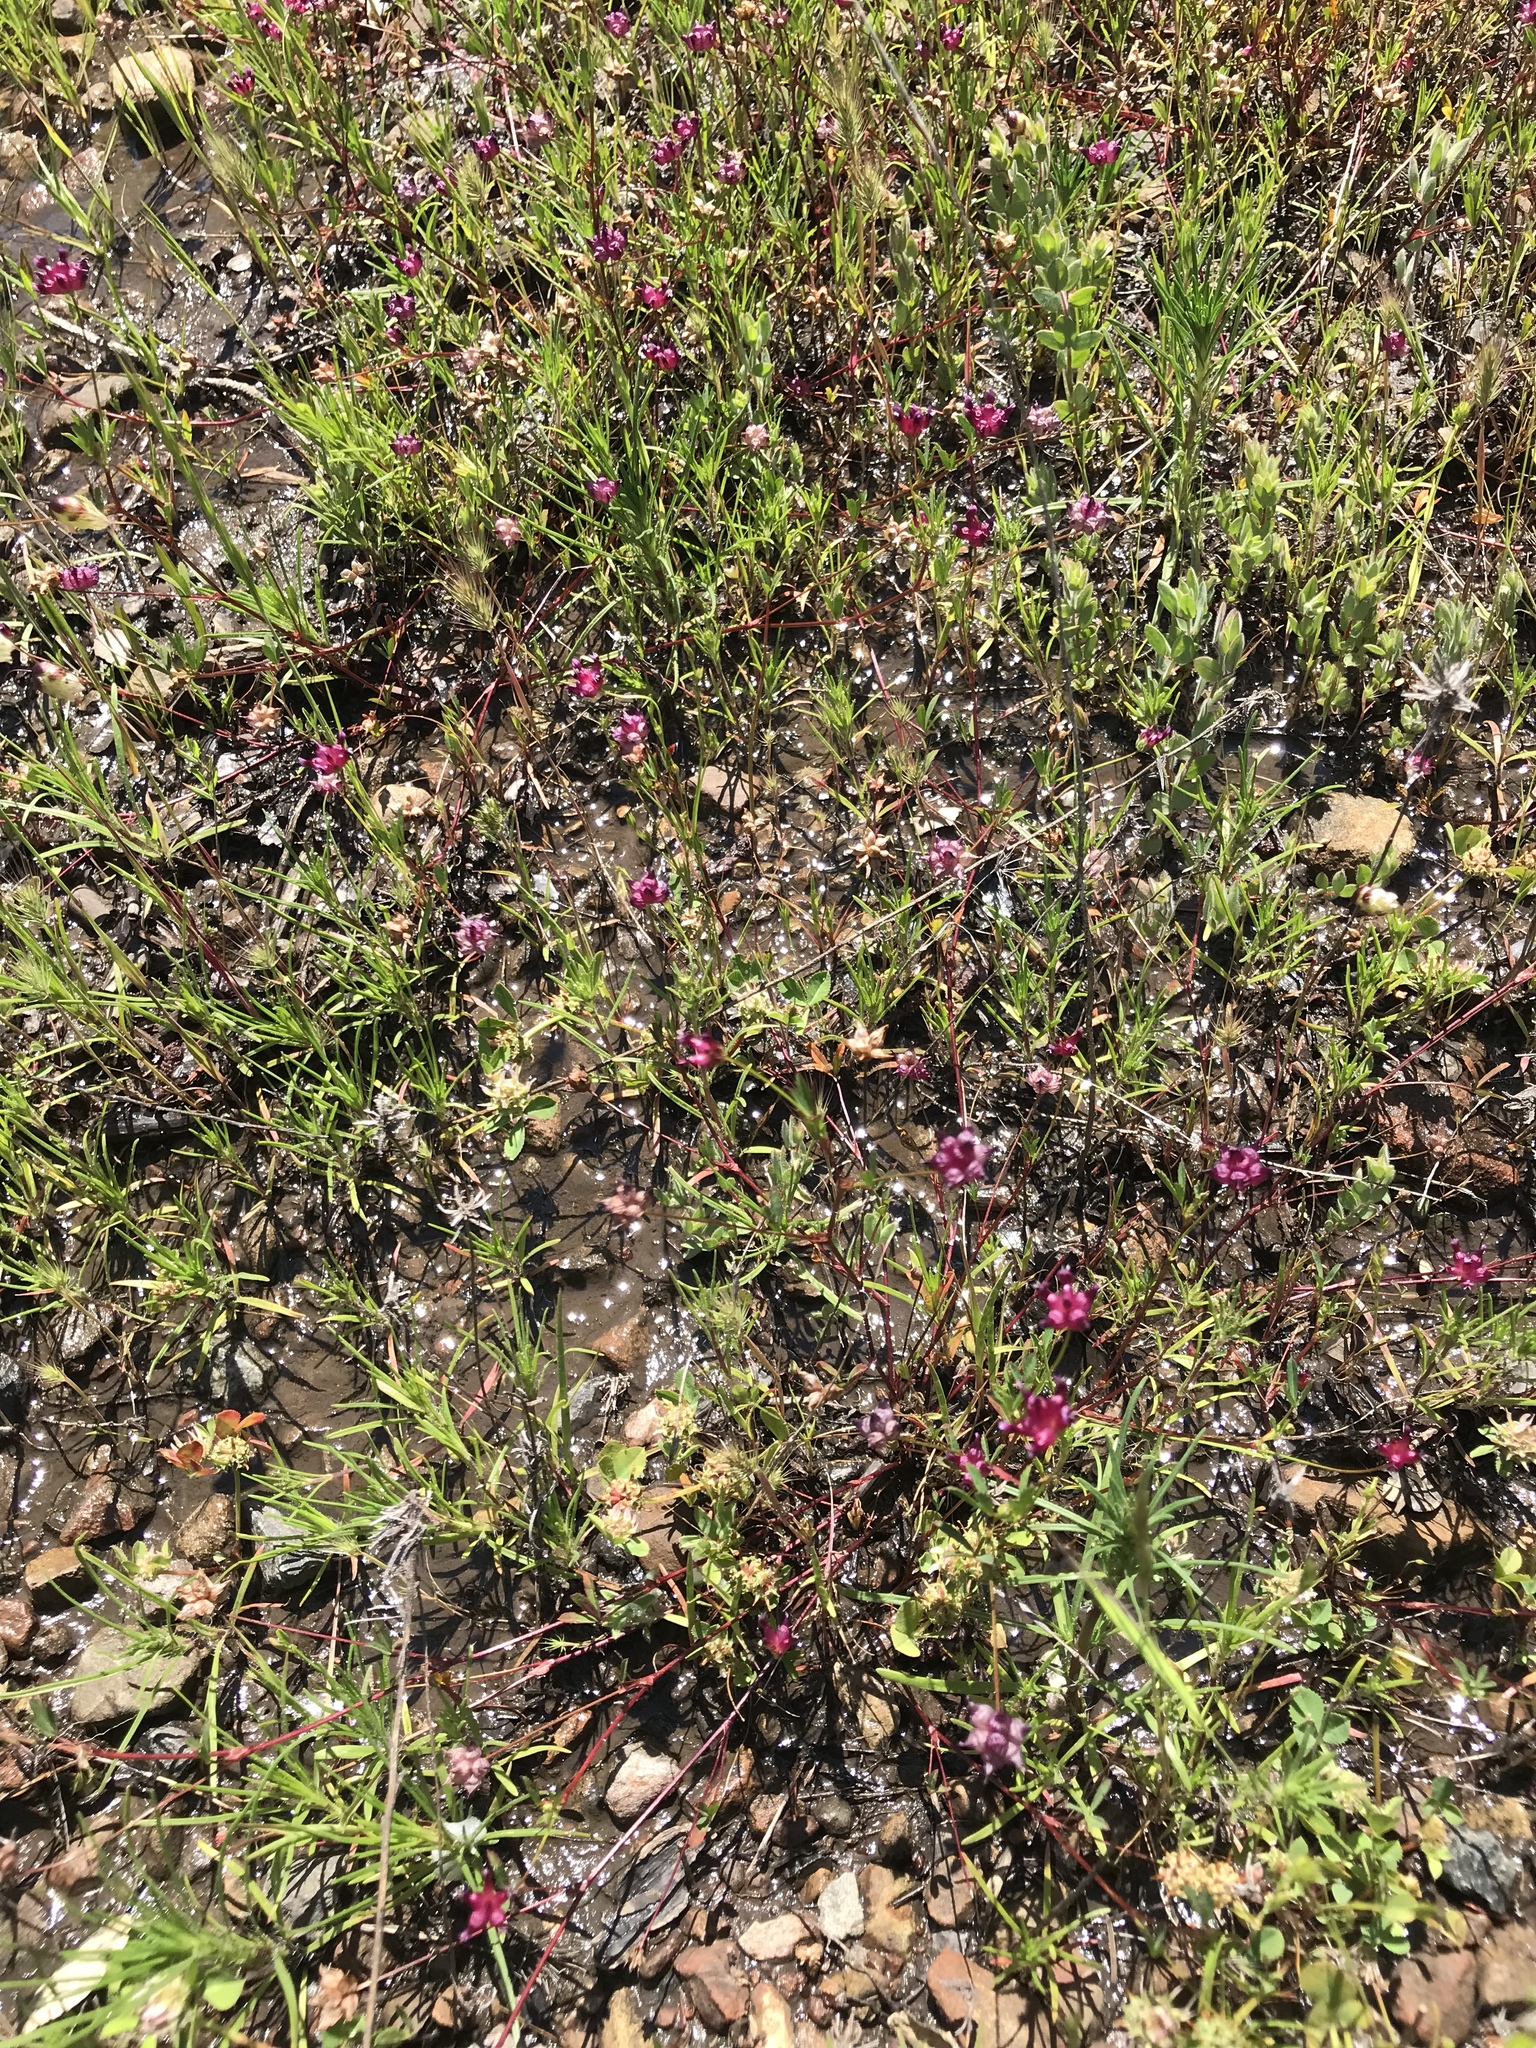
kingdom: Plantae
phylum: Tracheophyta
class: Magnoliopsida
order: Fabales
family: Fabaceae
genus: Trifolium
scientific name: Trifolium depauperatum
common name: Poverty clover
